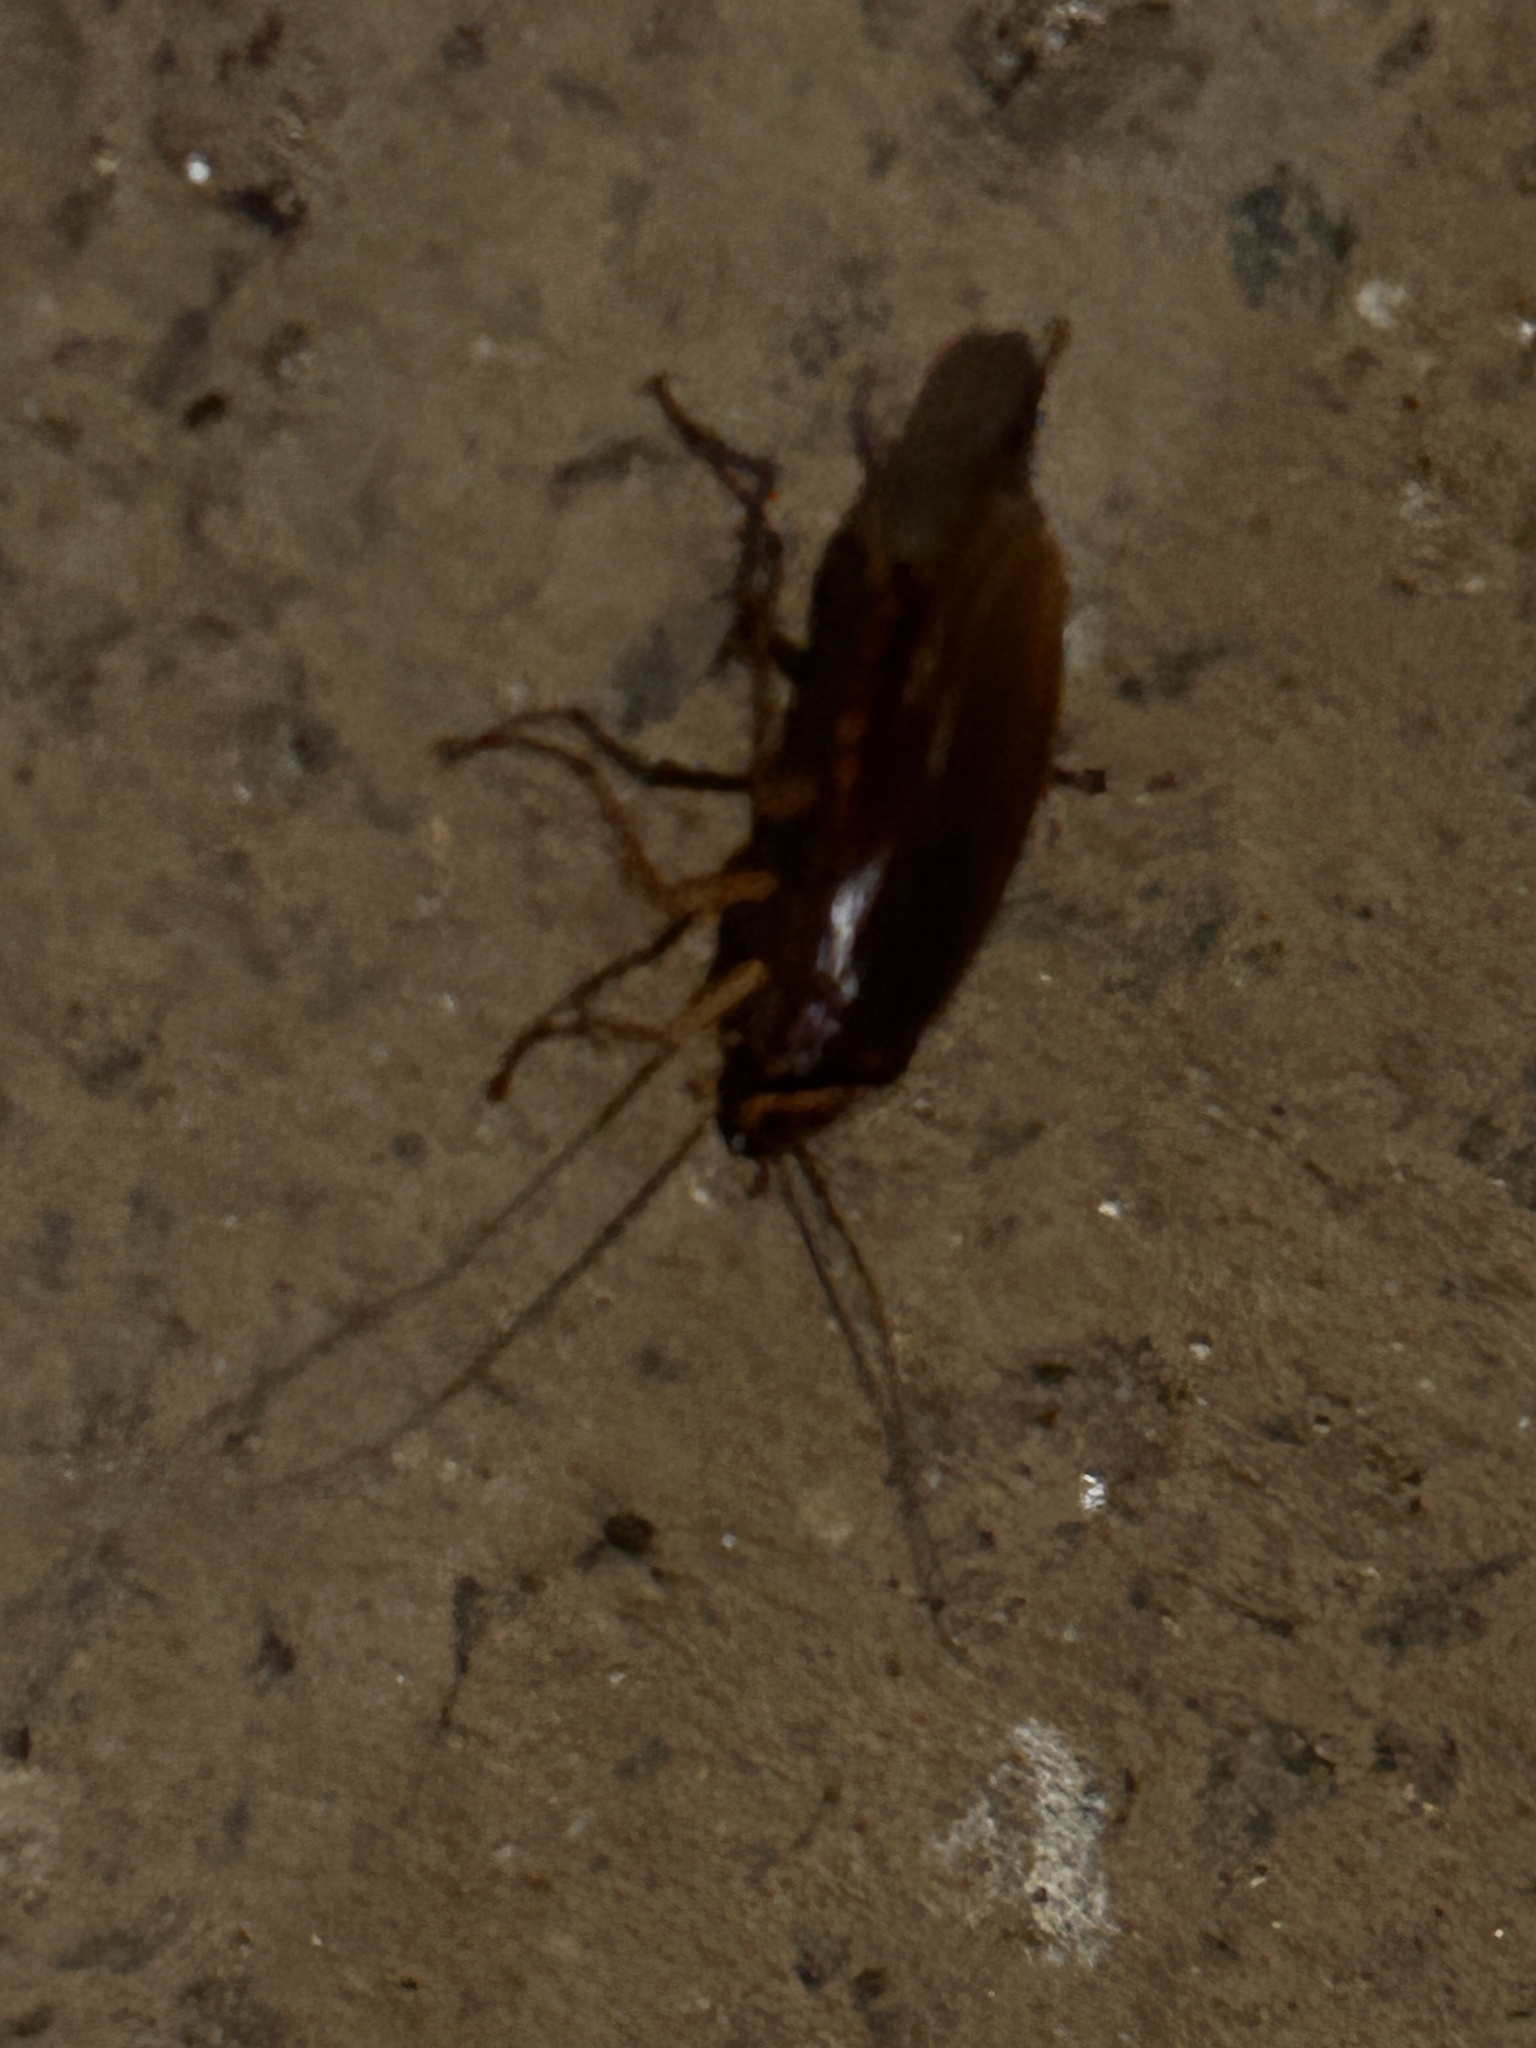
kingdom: Animalia
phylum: Arthropoda
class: Insecta
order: Blattodea
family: Blattidae
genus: Periplaneta
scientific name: Periplaneta americana
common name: American cockroach
